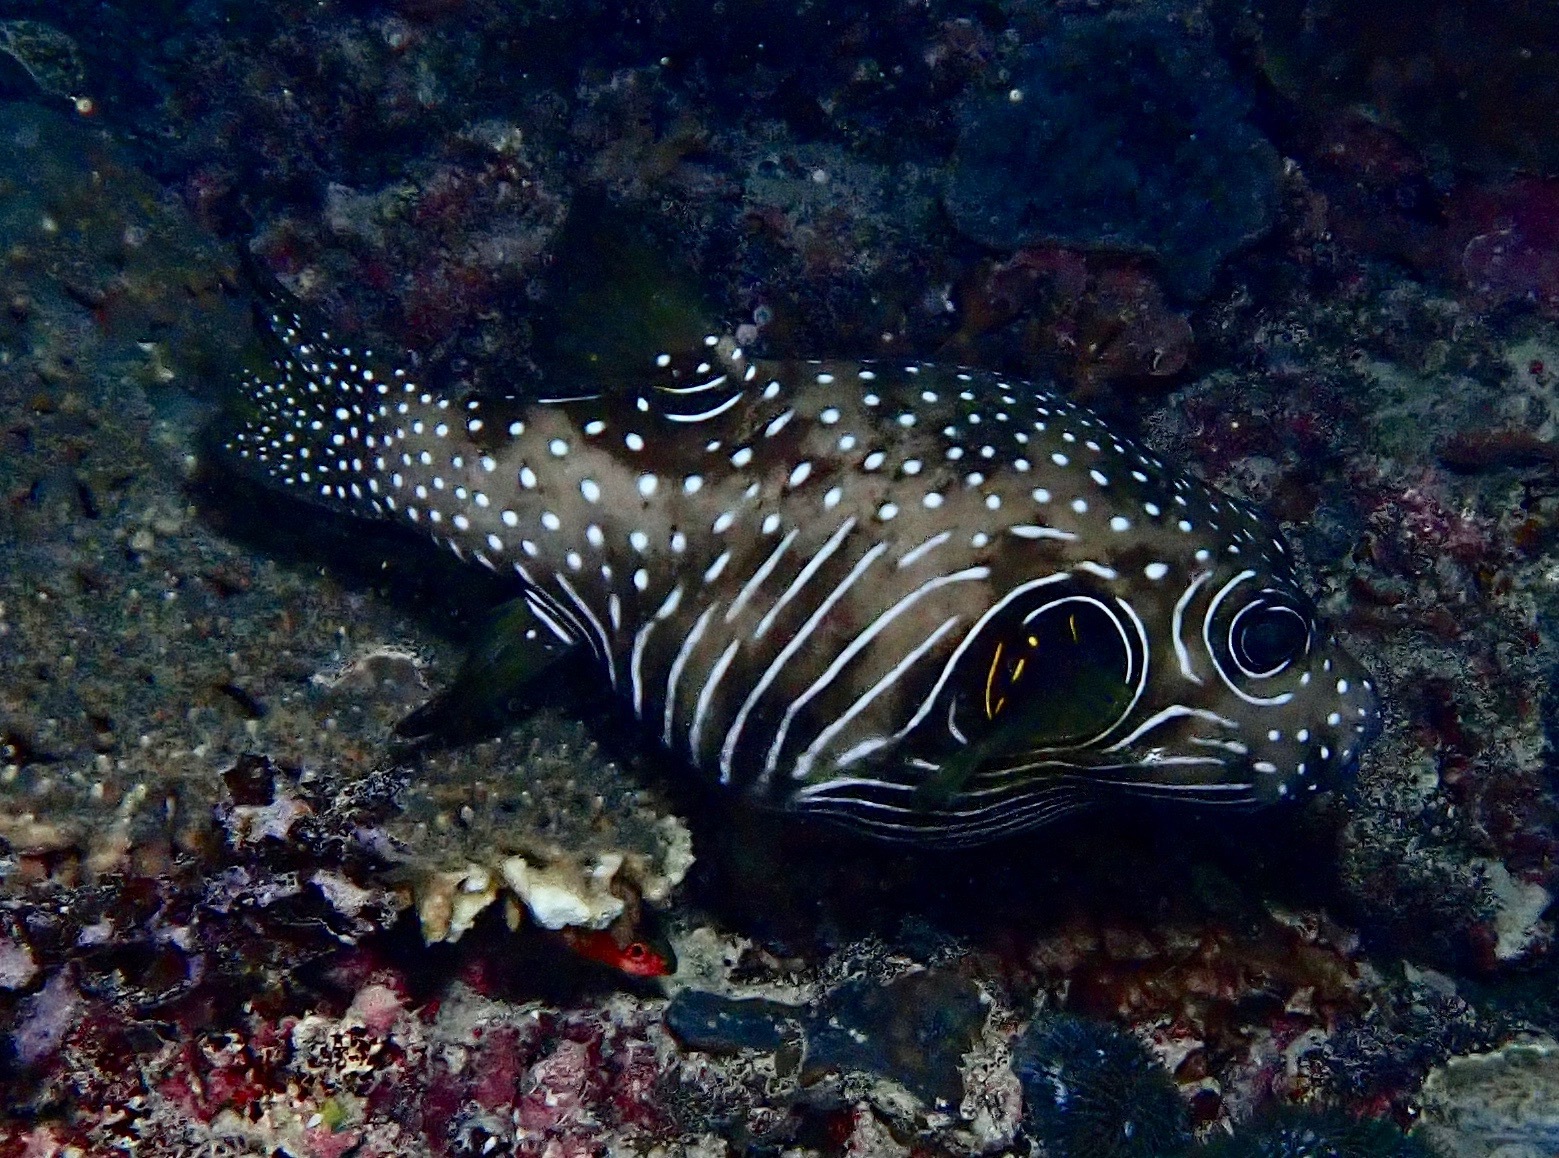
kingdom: Animalia
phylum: Chordata
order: Tetraodontiformes
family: Tetraodontidae
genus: Arothron
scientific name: Arothron hispidus
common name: Stripebelly puffer
